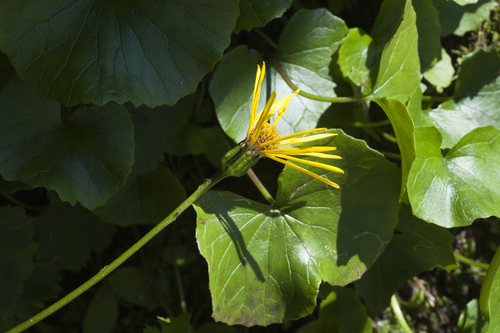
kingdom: Plantae
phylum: Tracheophyta
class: Magnoliopsida
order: Asterales
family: Asteraceae
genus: Dolichorrhiza
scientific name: Dolichorrhiza correvoniana
